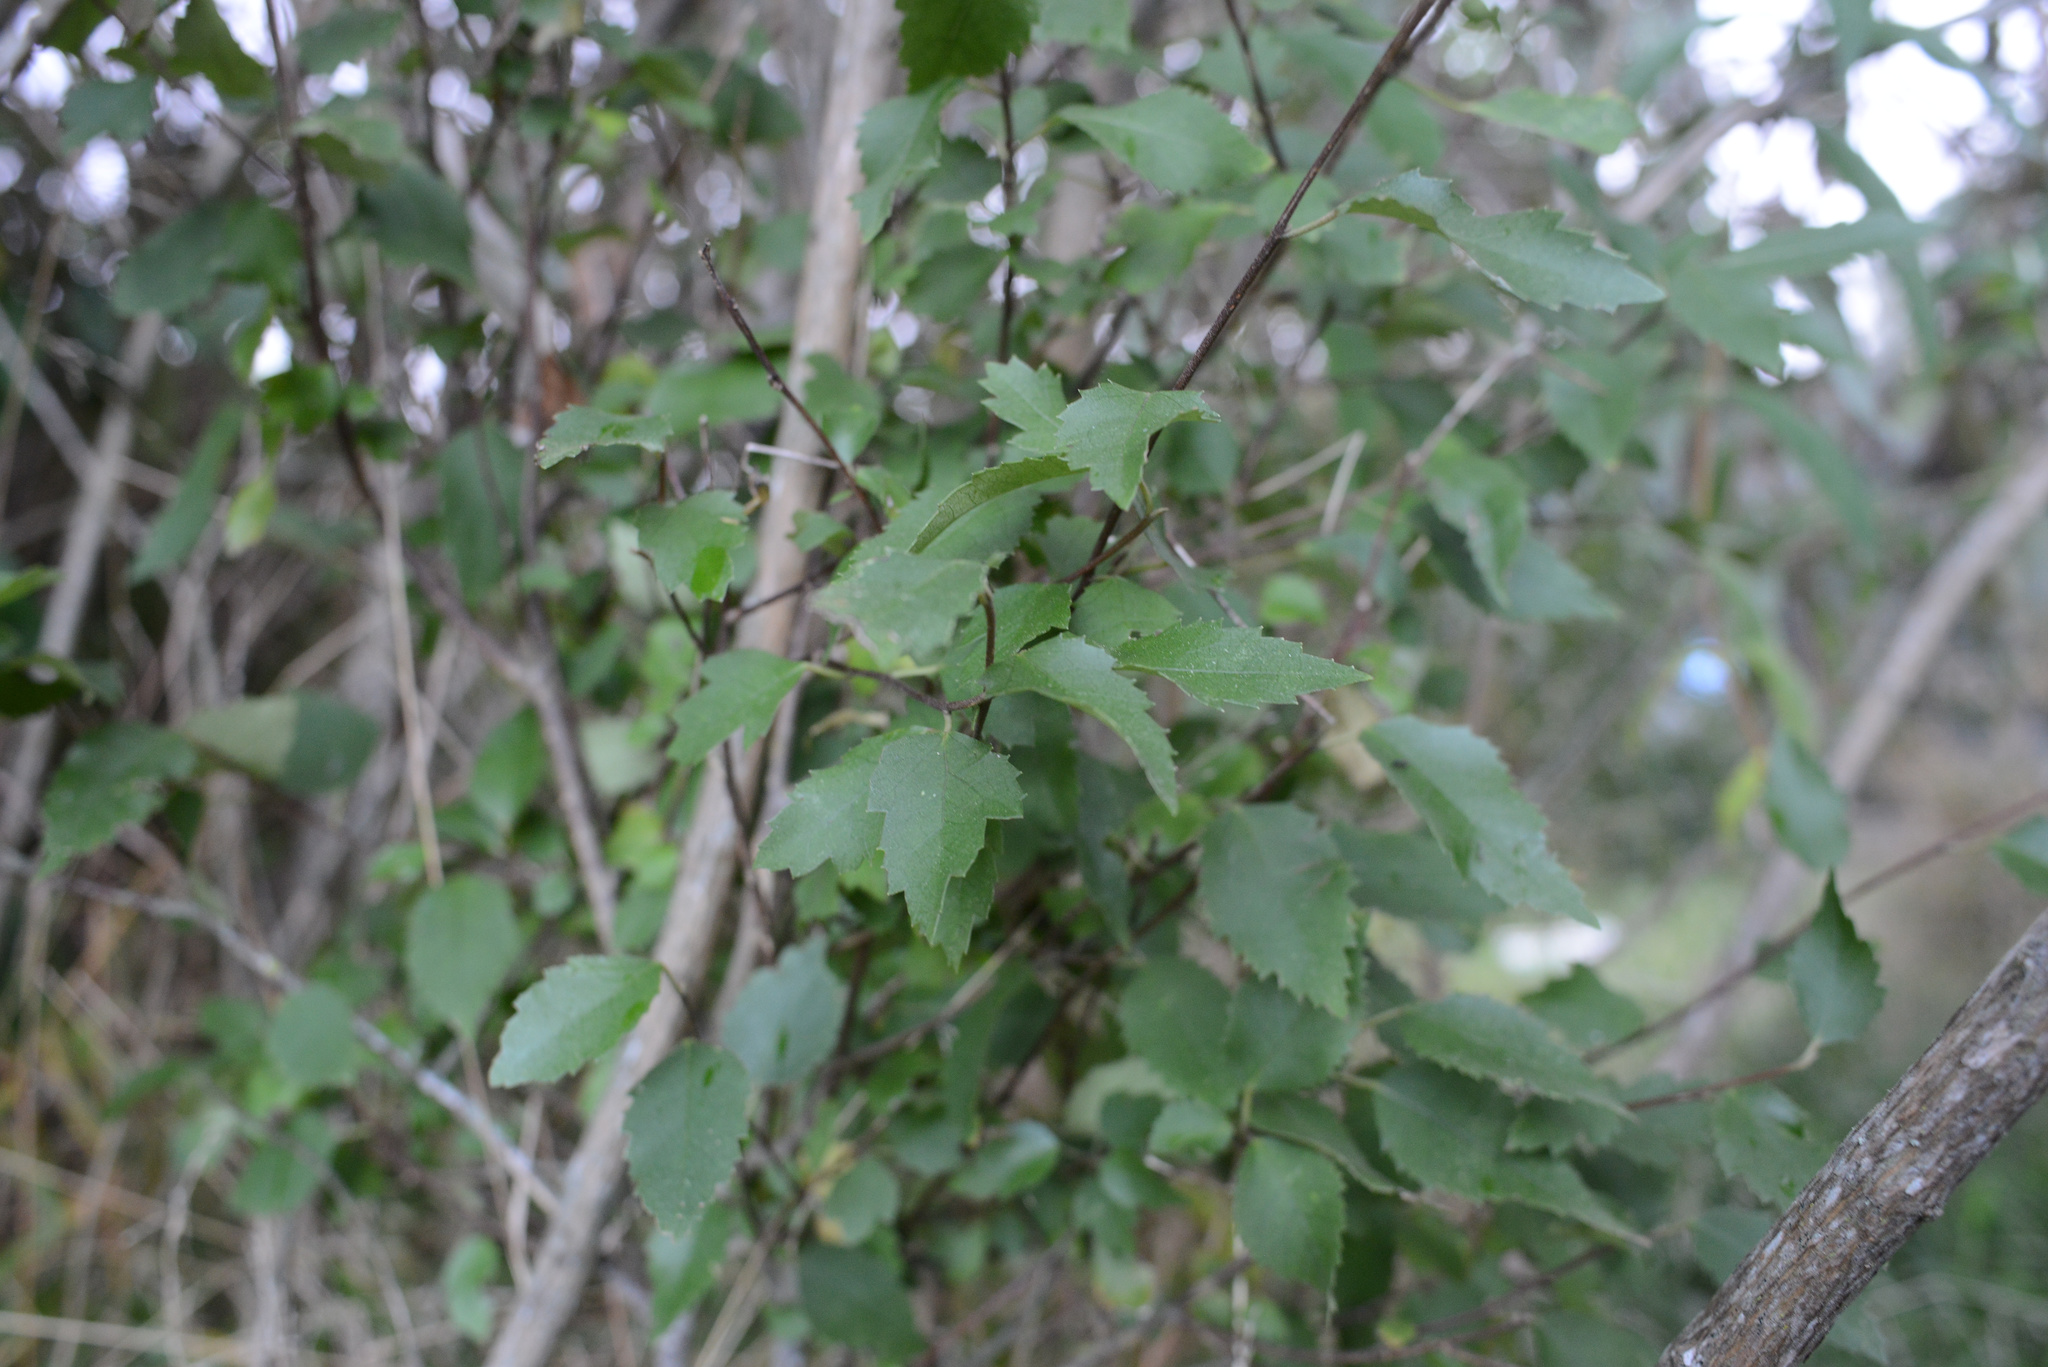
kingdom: Plantae
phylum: Tracheophyta
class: Magnoliopsida
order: Malvales
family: Malvaceae
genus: Hoheria
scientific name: Hoheria populnea
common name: Lacebark
